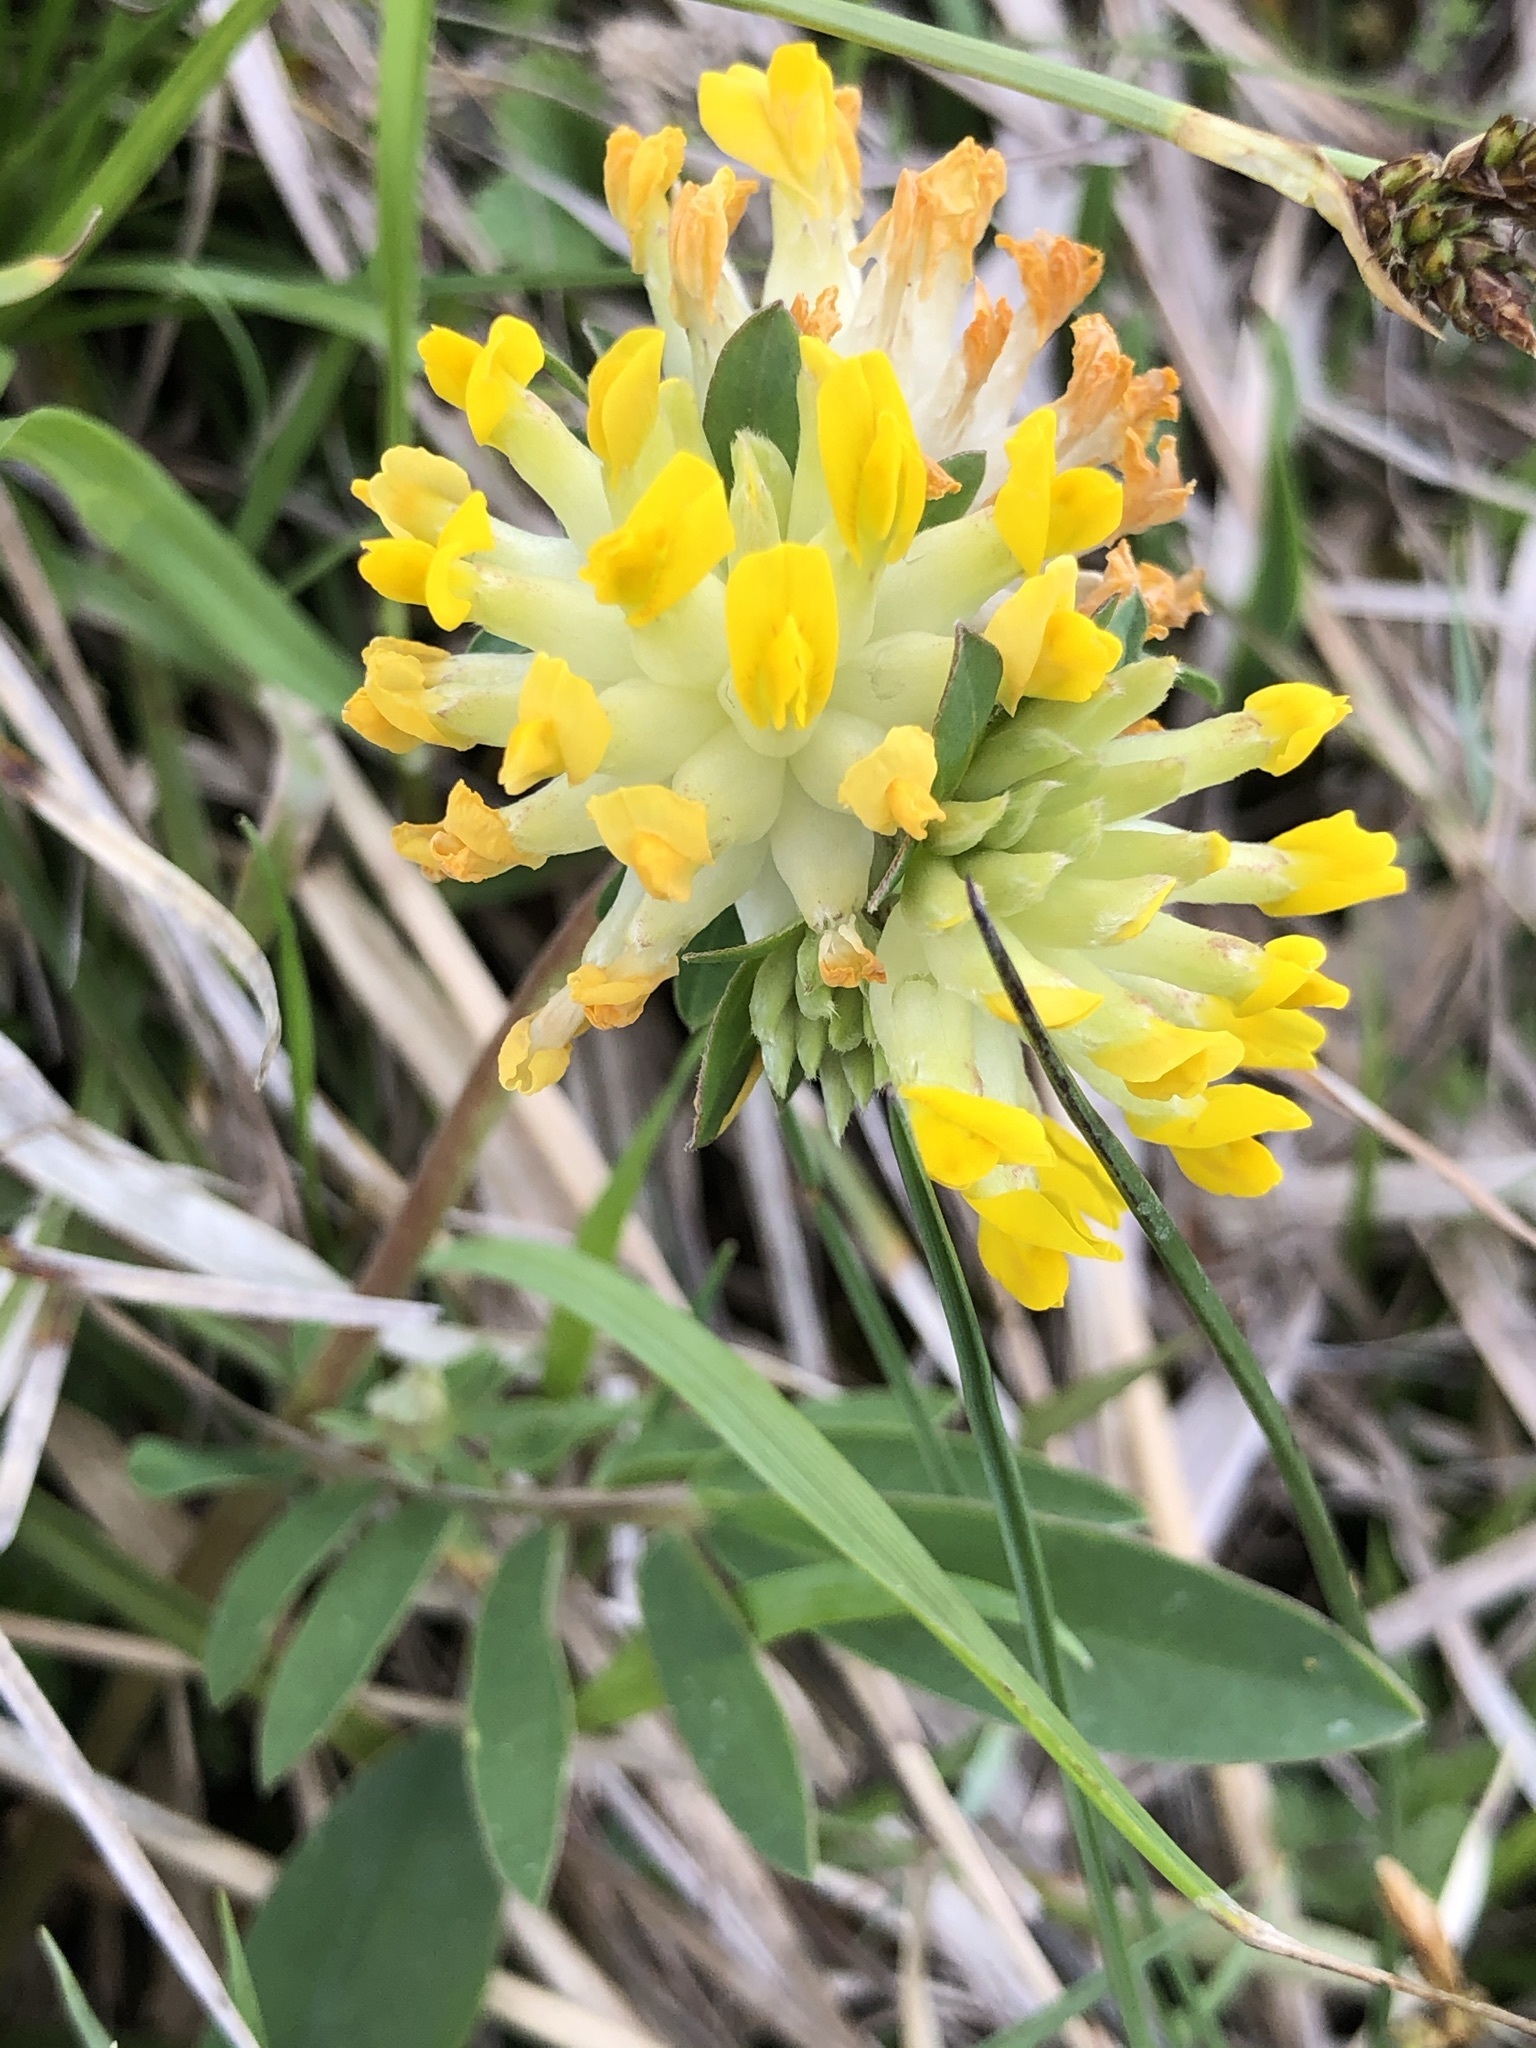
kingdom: Plantae
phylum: Tracheophyta
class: Magnoliopsida
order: Fabales
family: Fabaceae
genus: Anthyllis
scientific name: Anthyllis vulneraria
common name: Kidney vetch
